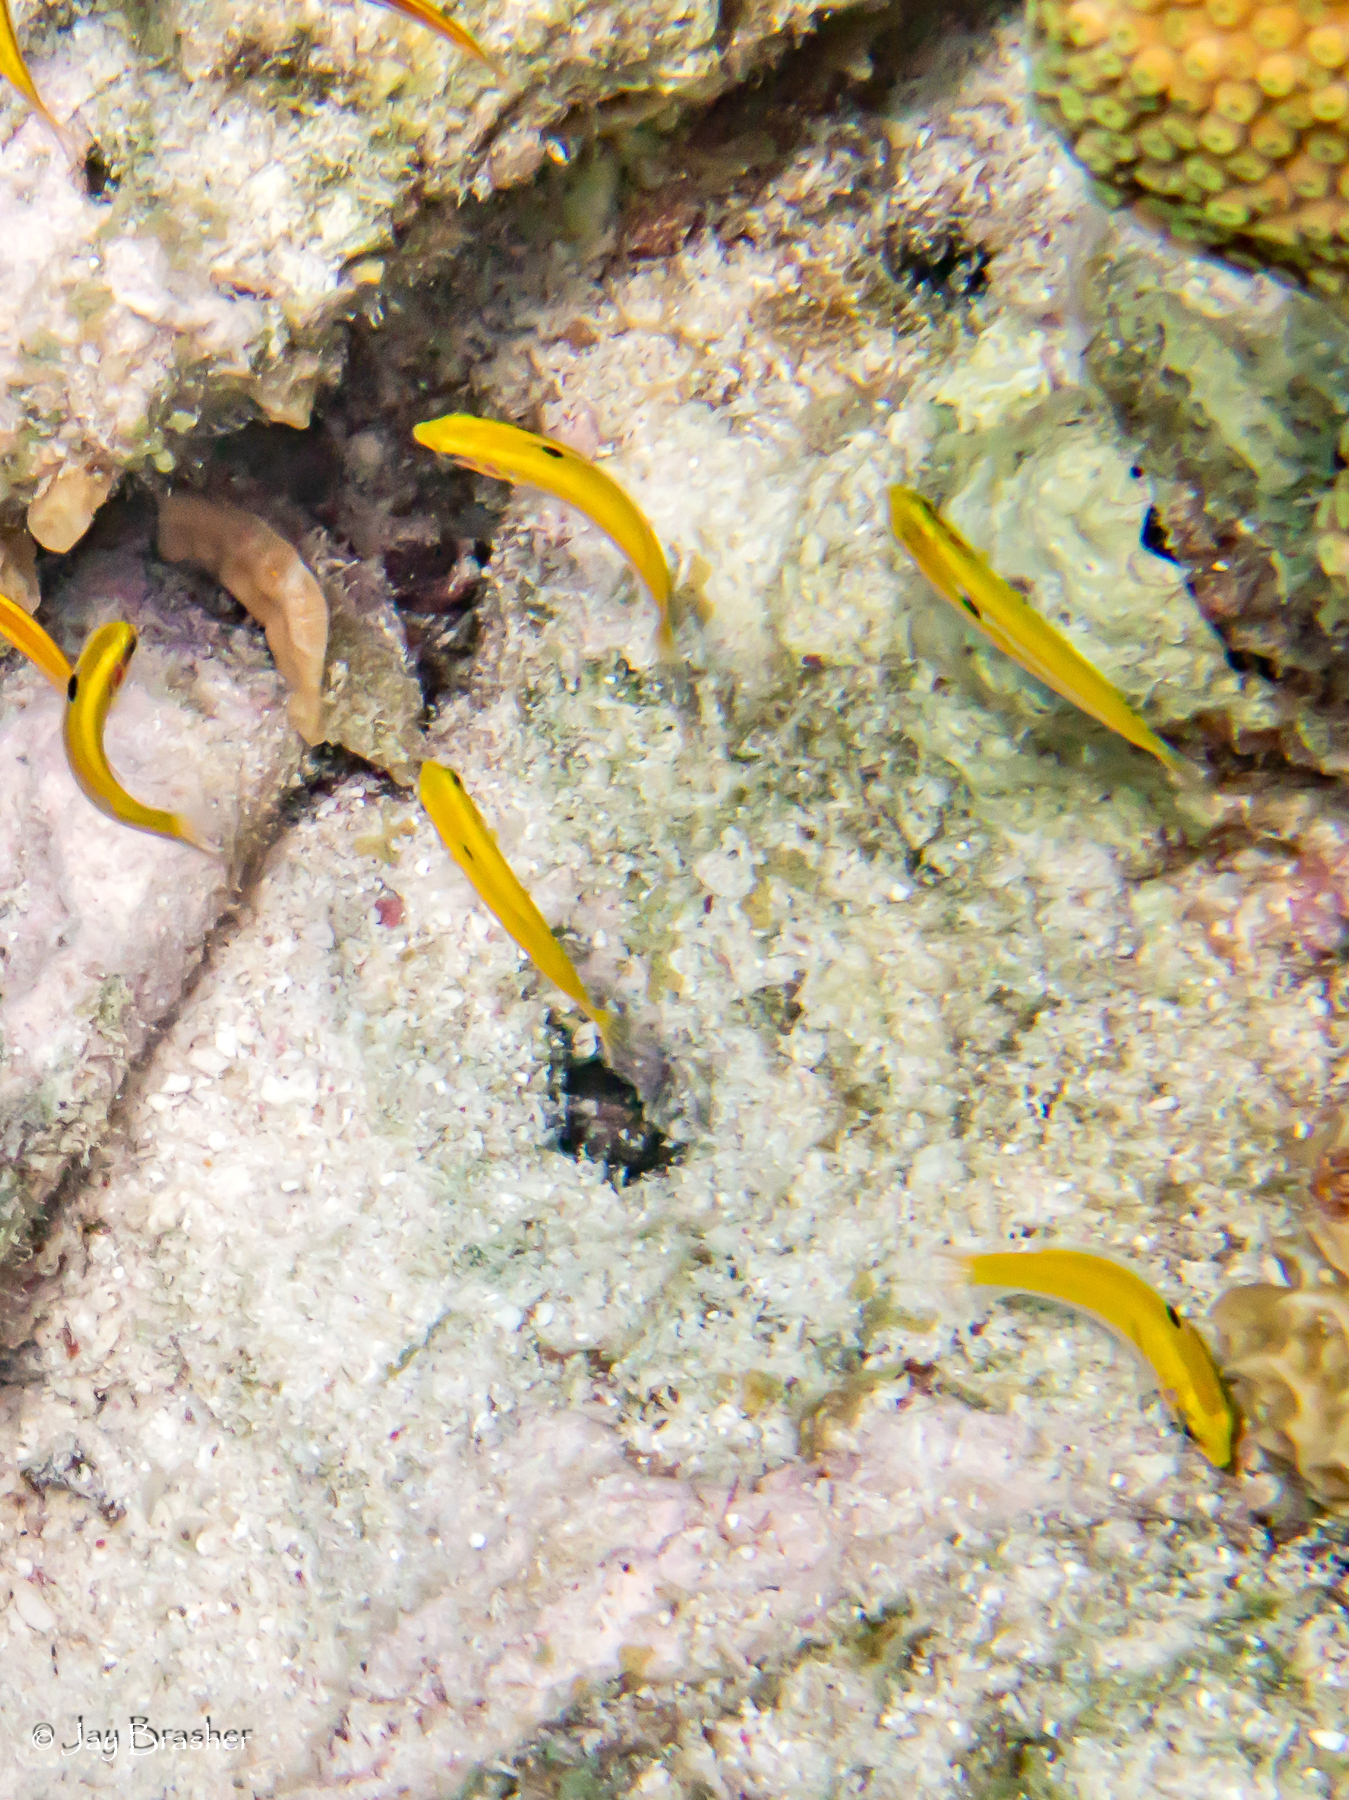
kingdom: Animalia
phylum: Chordata
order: Perciformes
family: Labridae
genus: Thalassoma
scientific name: Thalassoma bifasciatum
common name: Bluehead wrasse
